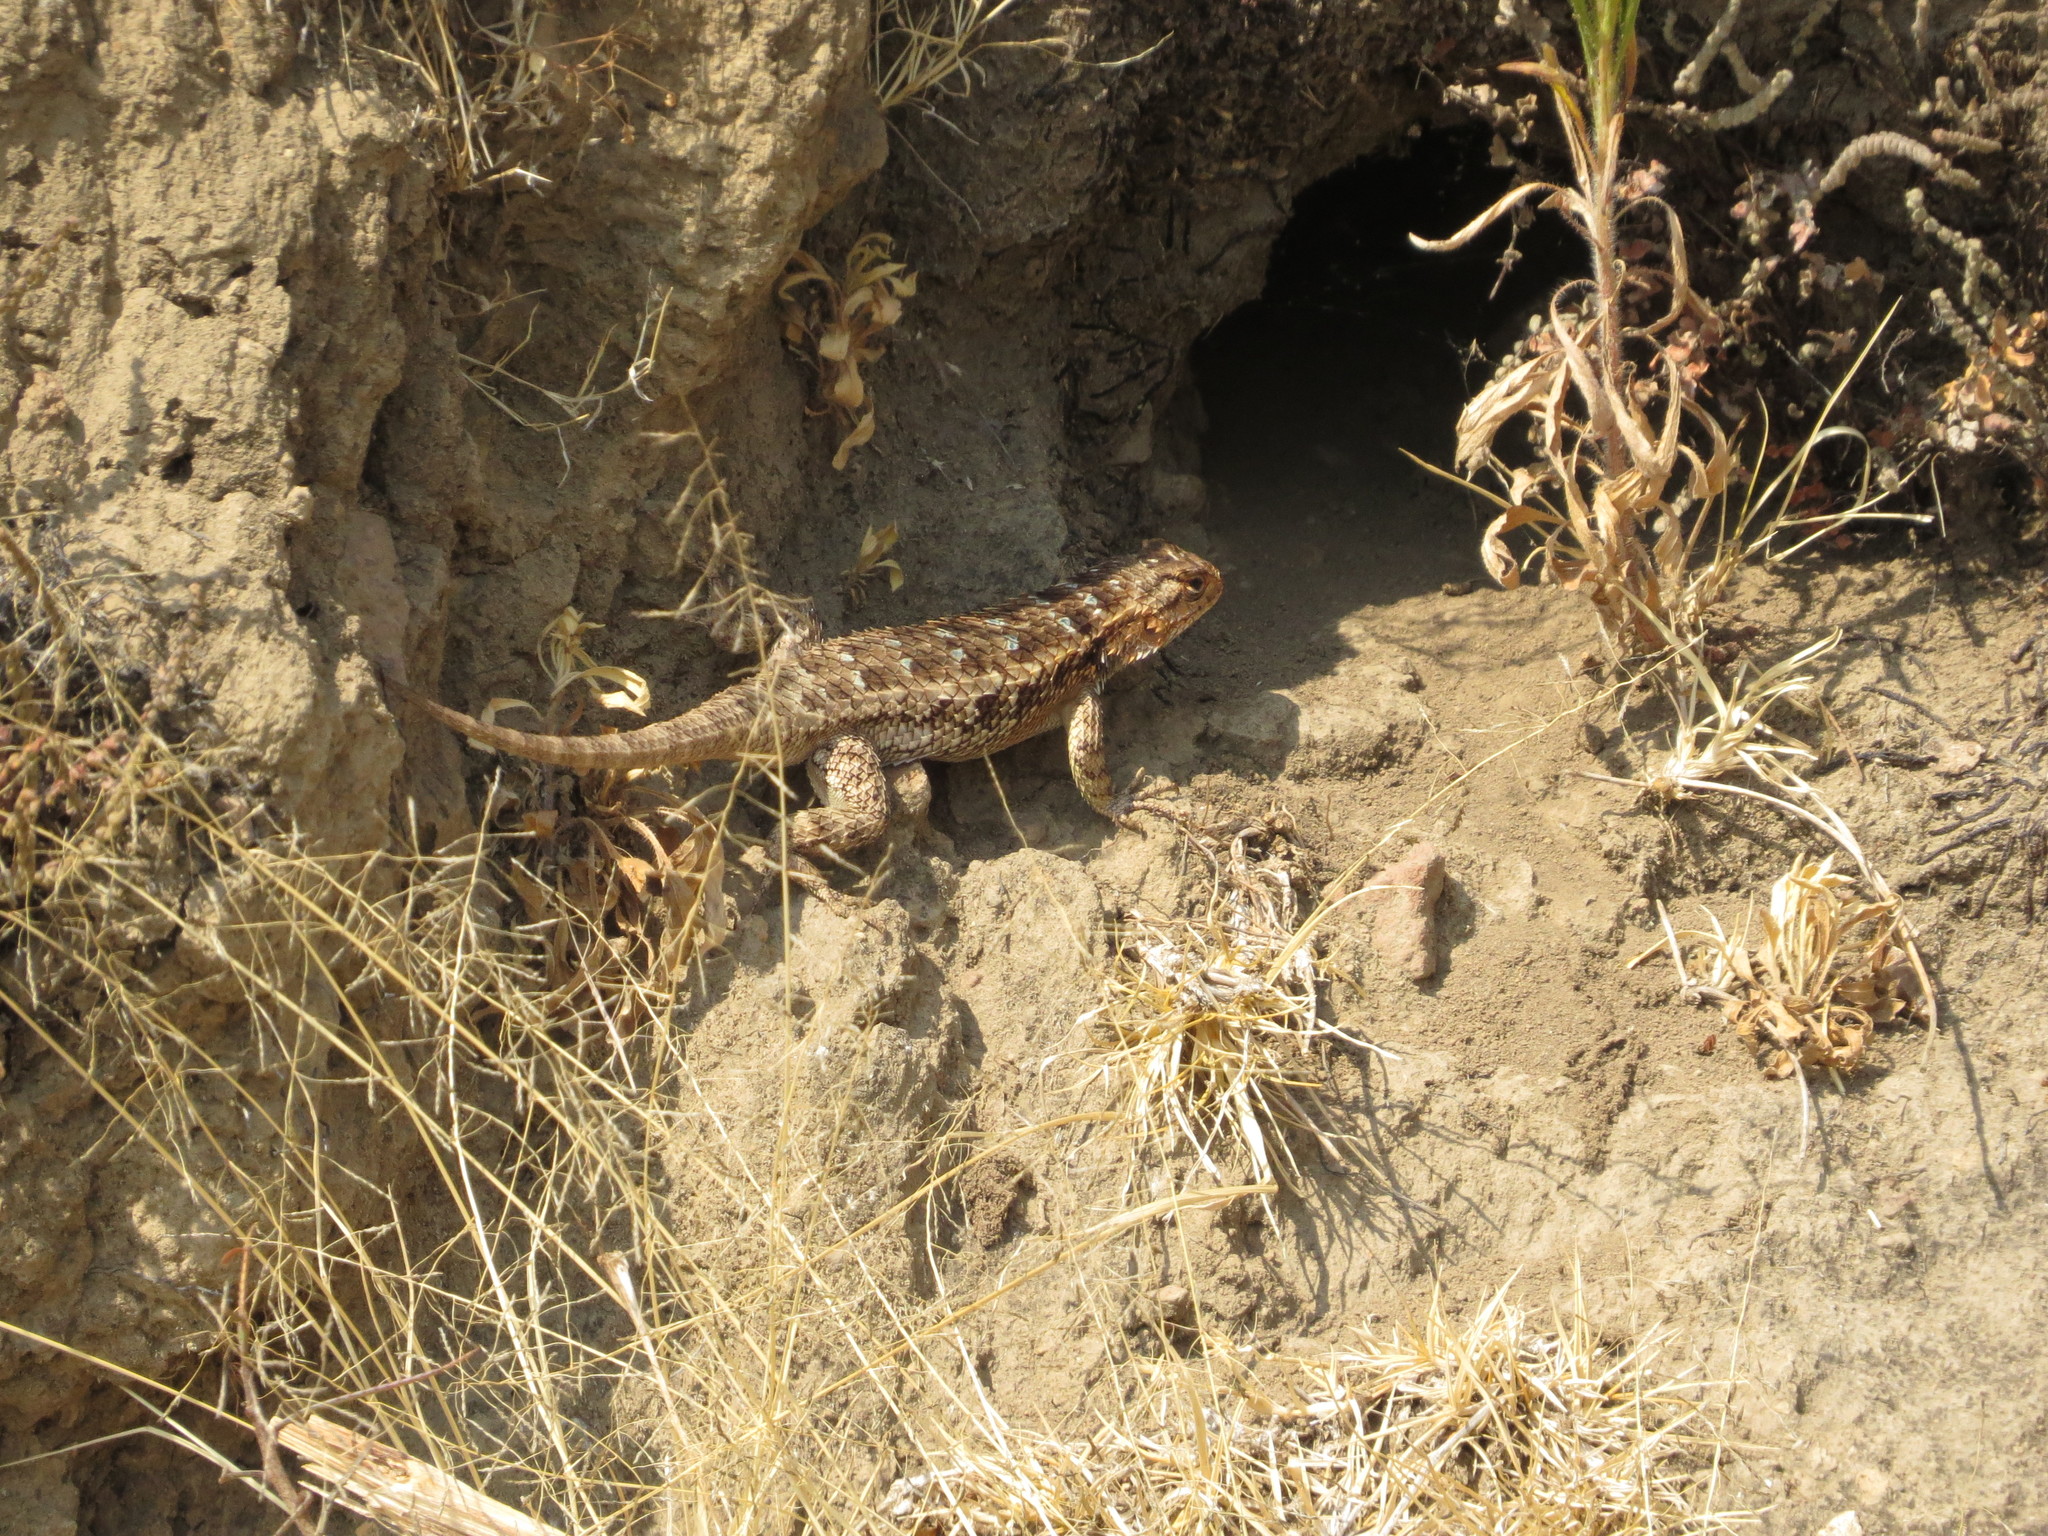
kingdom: Animalia
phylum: Chordata
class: Squamata
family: Phrynosomatidae
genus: Sceloporus
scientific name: Sceloporus spinosus
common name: Blue-spotted spiny lizard [caeruleopunctatus]
